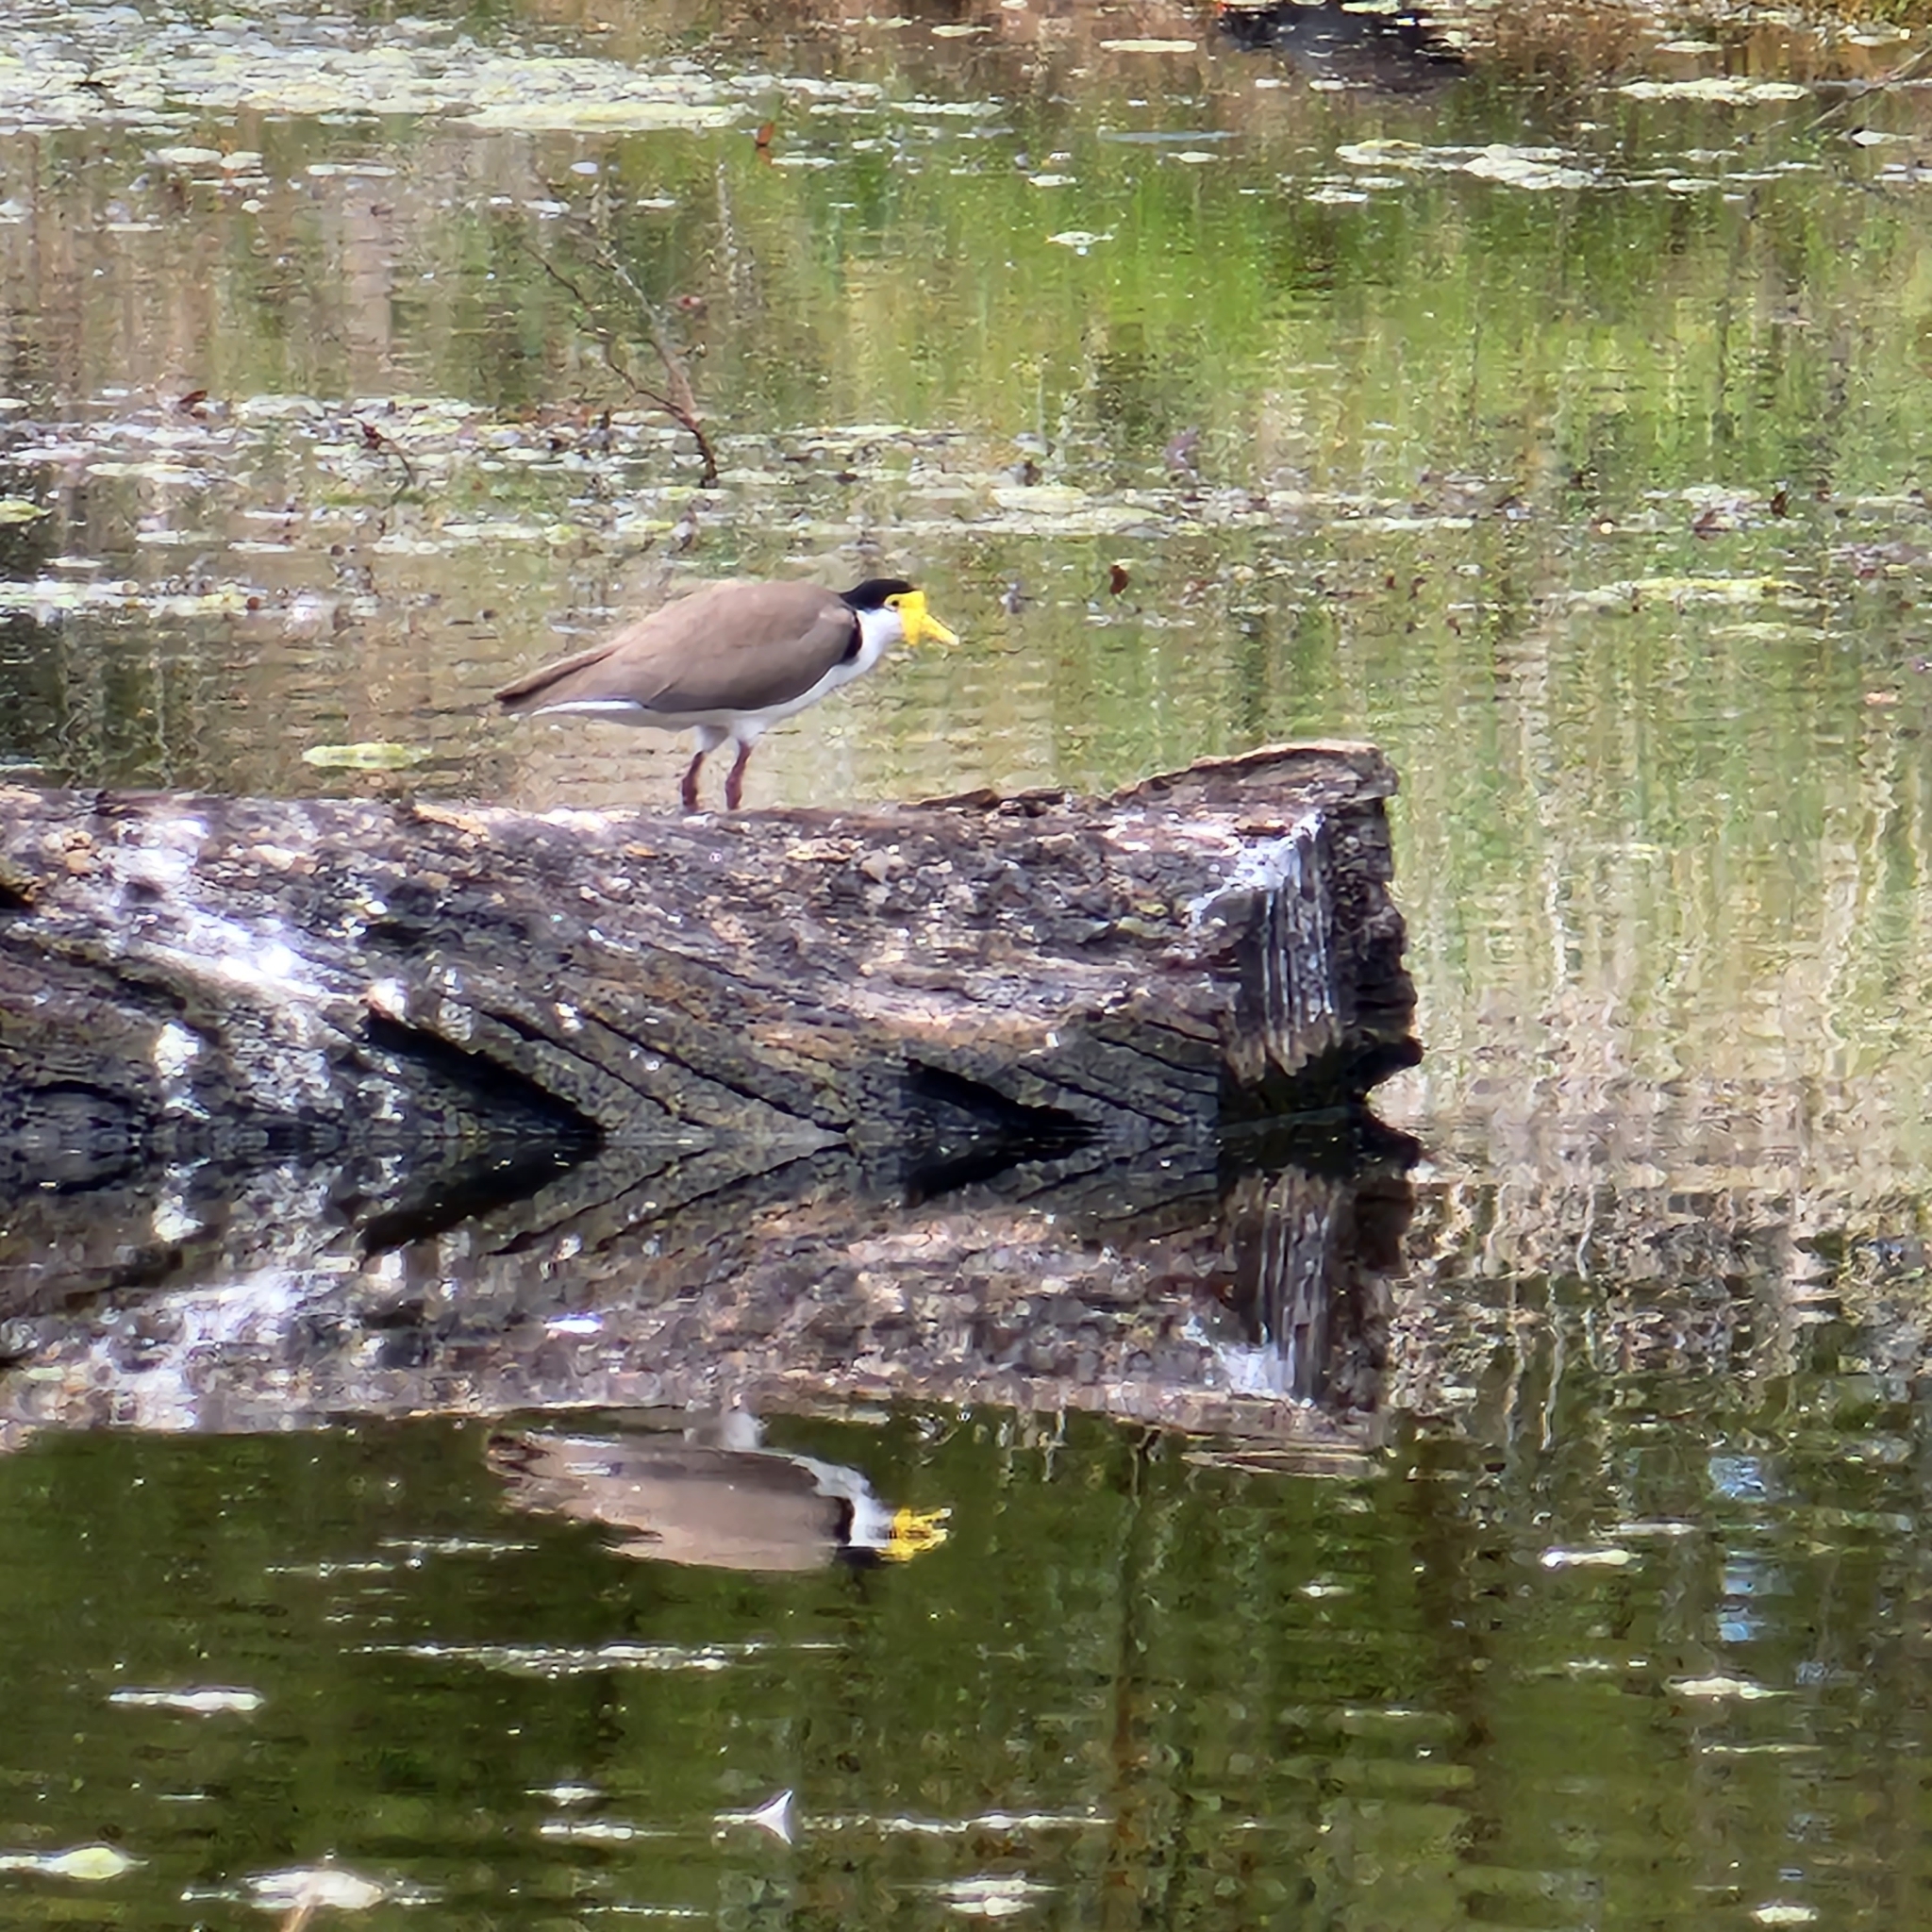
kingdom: Animalia
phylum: Chordata
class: Aves
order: Charadriiformes
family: Charadriidae
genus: Vanellus
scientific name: Vanellus miles
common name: Masked lapwing
